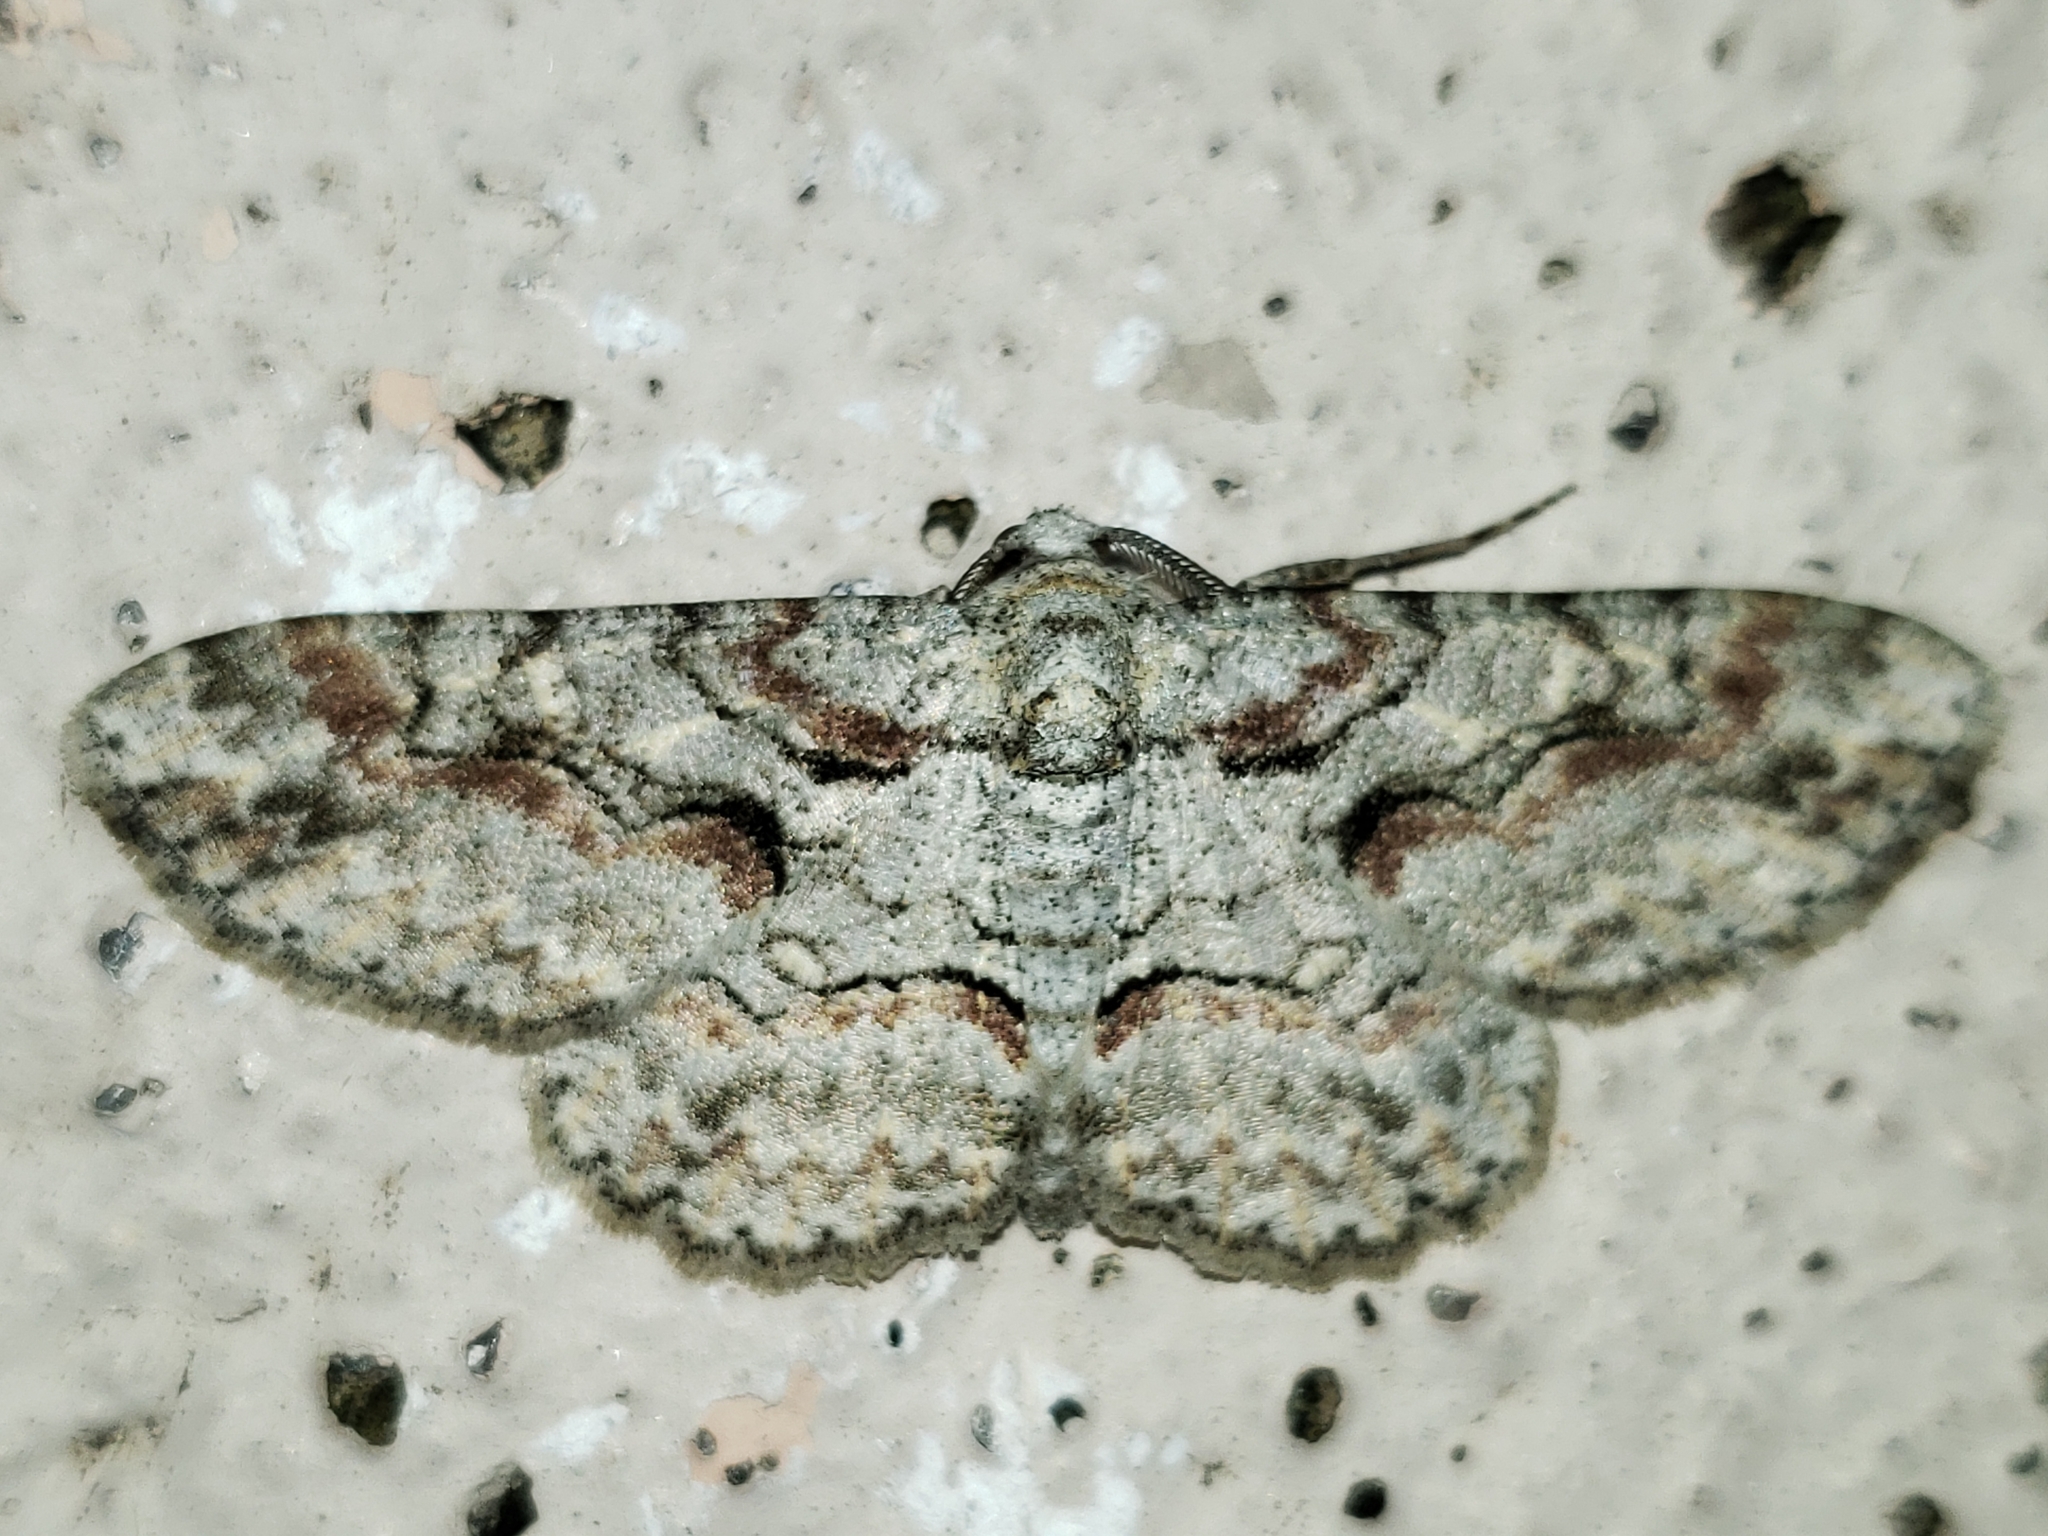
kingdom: Animalia
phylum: Arthropoda
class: Insecta
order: Lepidoptera
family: Geometridae
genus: Iridopsis
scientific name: Iridopsis defectaria
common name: Brown-shaded gray
